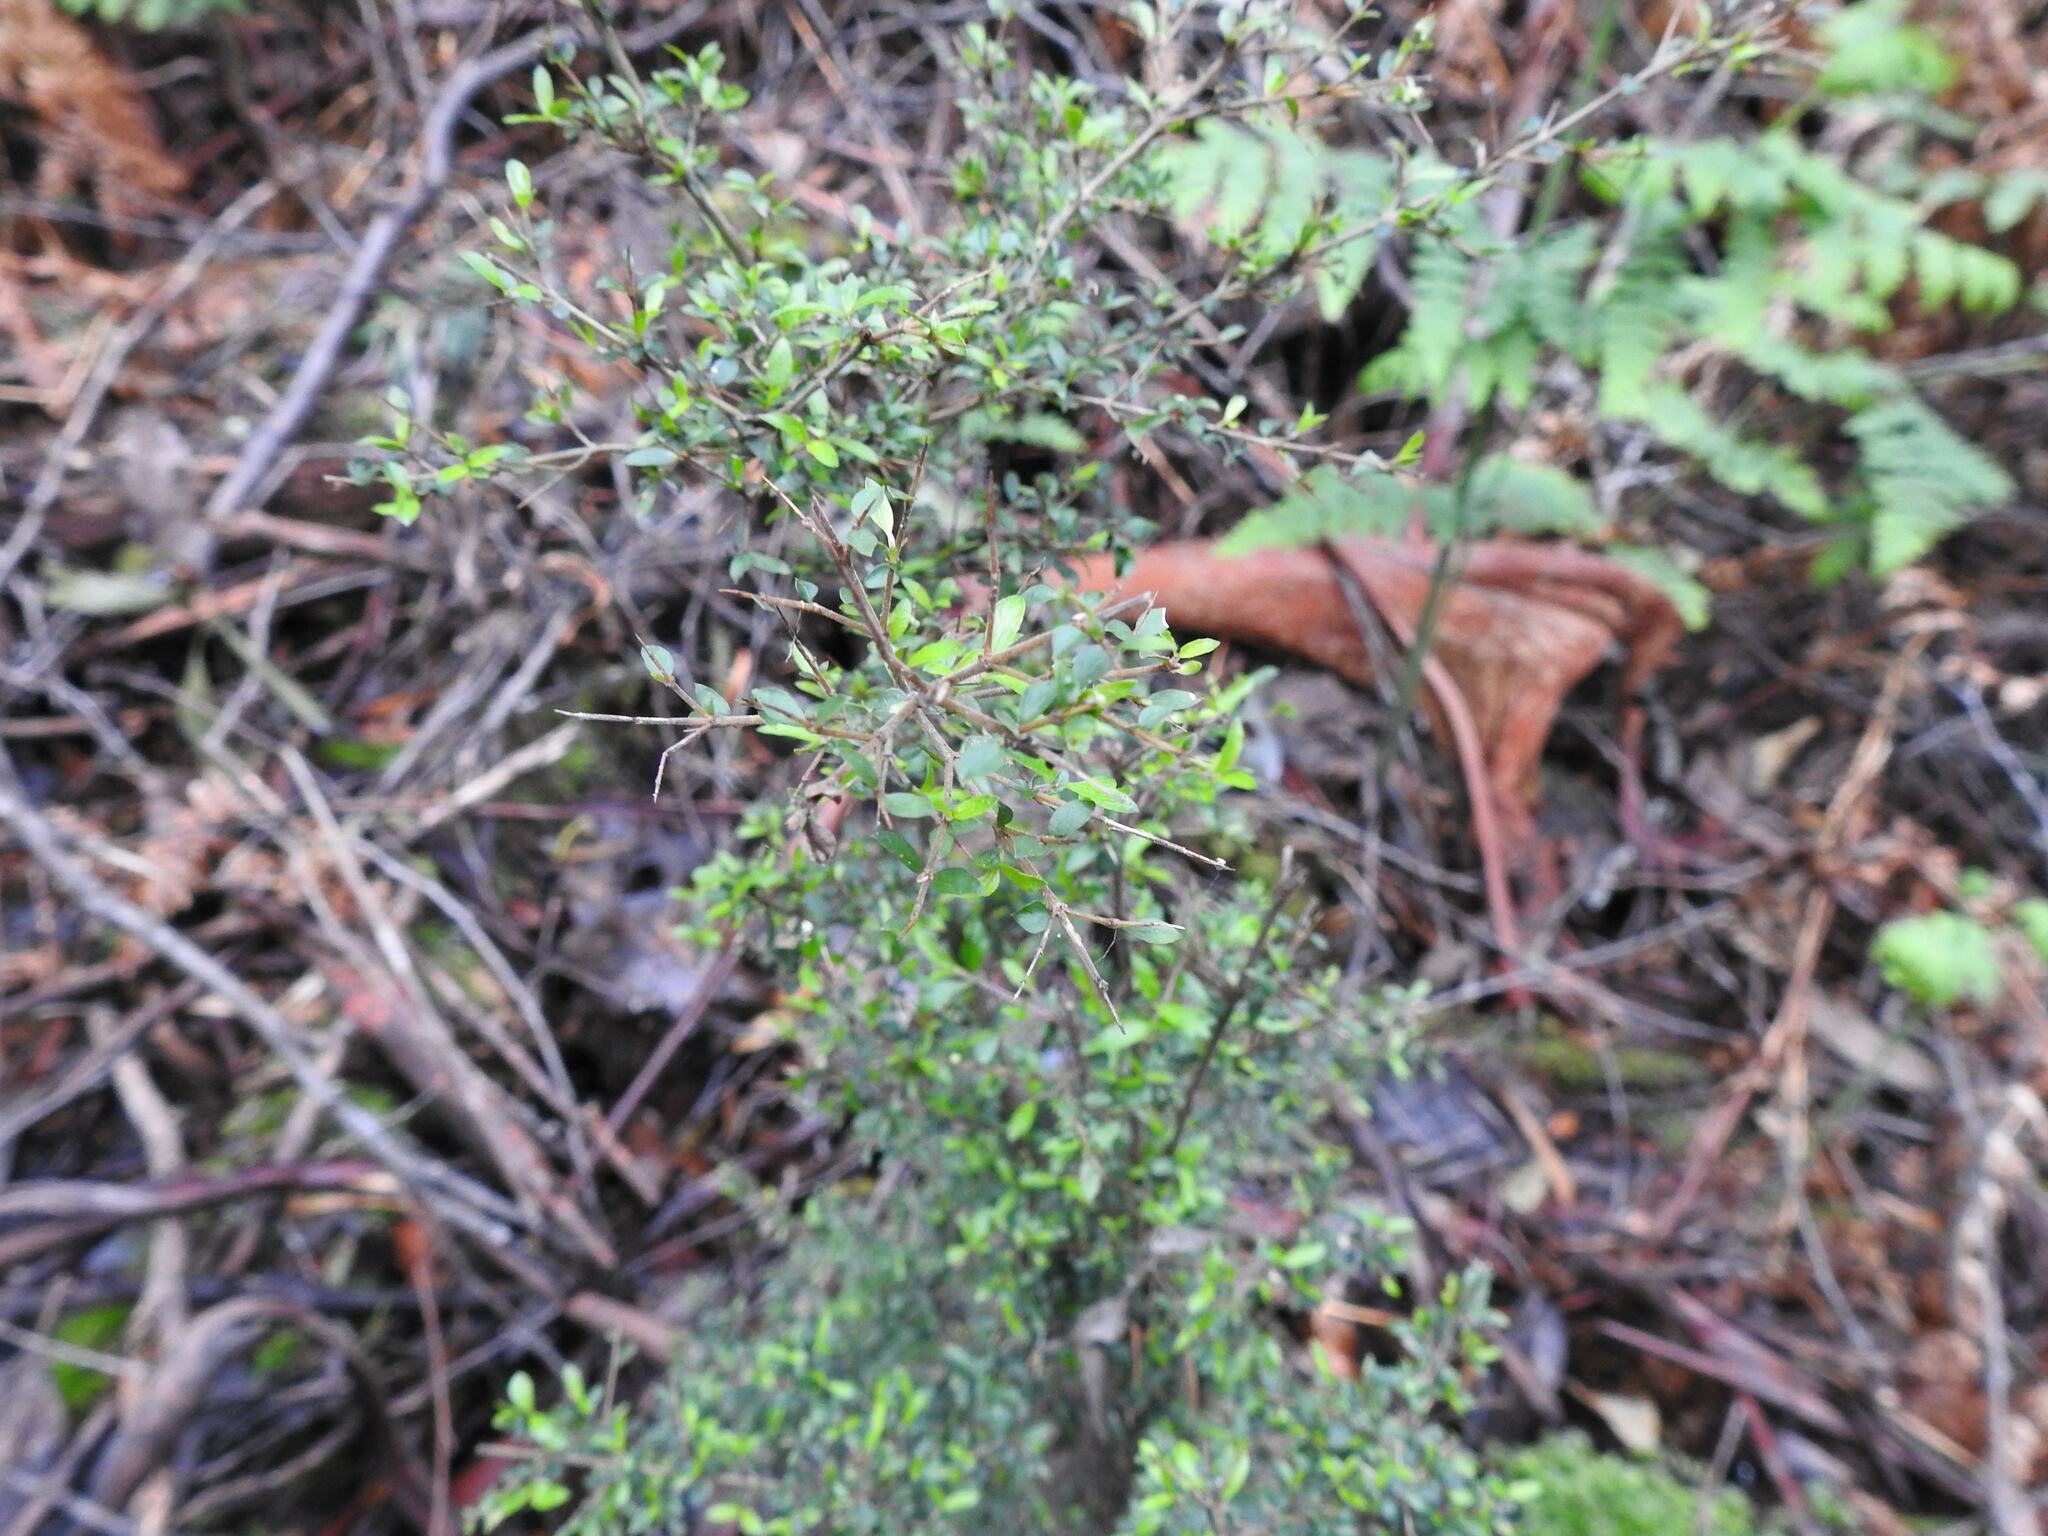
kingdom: Plantae
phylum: Tracheophyta
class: Magnoliopsida
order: Gentianales
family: Rubiaceae
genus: Coprosma
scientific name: Coprosma quadrifida
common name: Prickly currantbush
